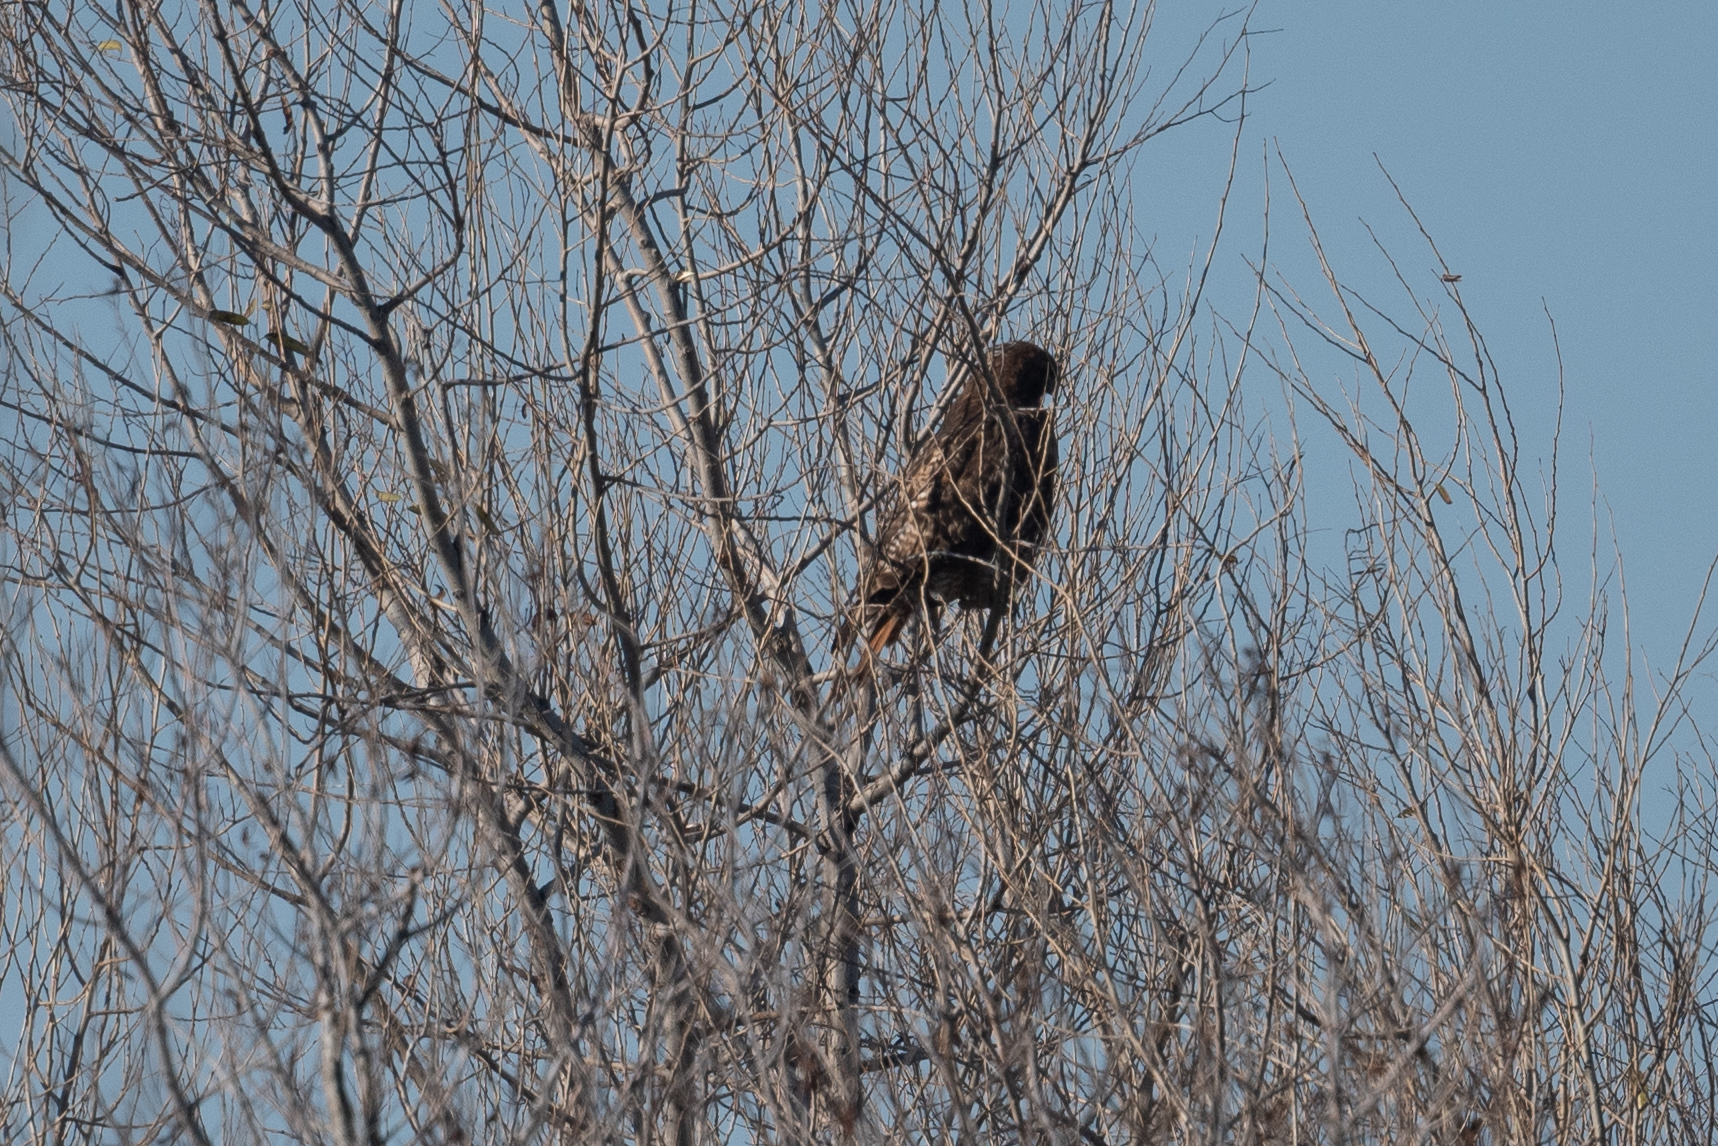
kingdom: Animalia
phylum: Chordata
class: Aves
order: Accipitriformes
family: Accipitridae
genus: Buteo
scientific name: Buteo jamaicensis
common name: Red-tailed hawk
